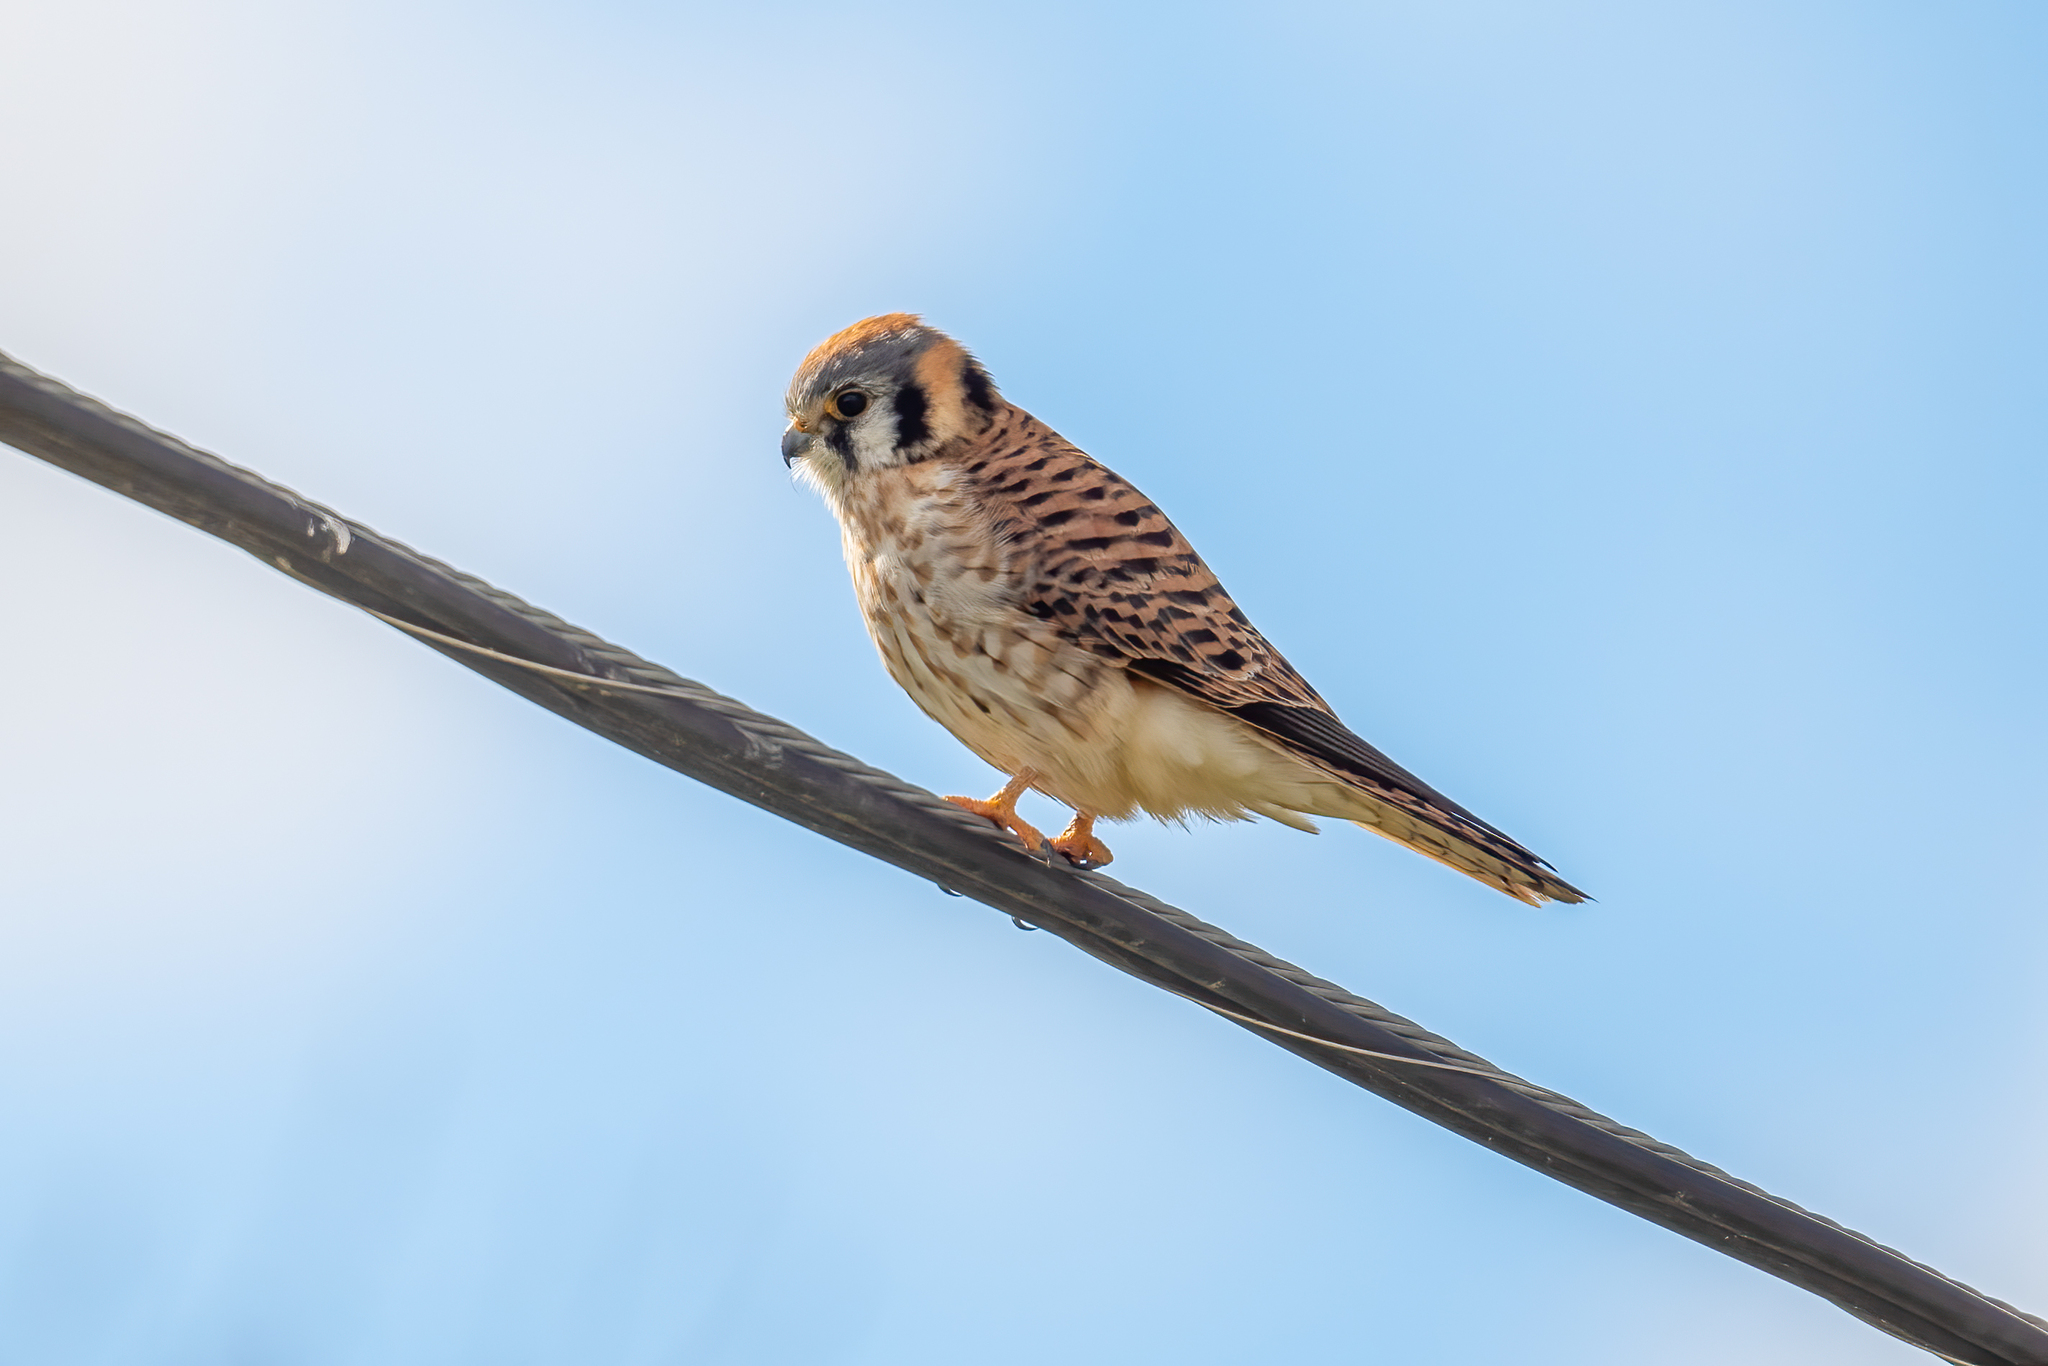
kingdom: Animalia
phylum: Chordata
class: Aves
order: Falconiformes
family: Falconidae
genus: Falco
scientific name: Falco sparverius
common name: American kestrel
